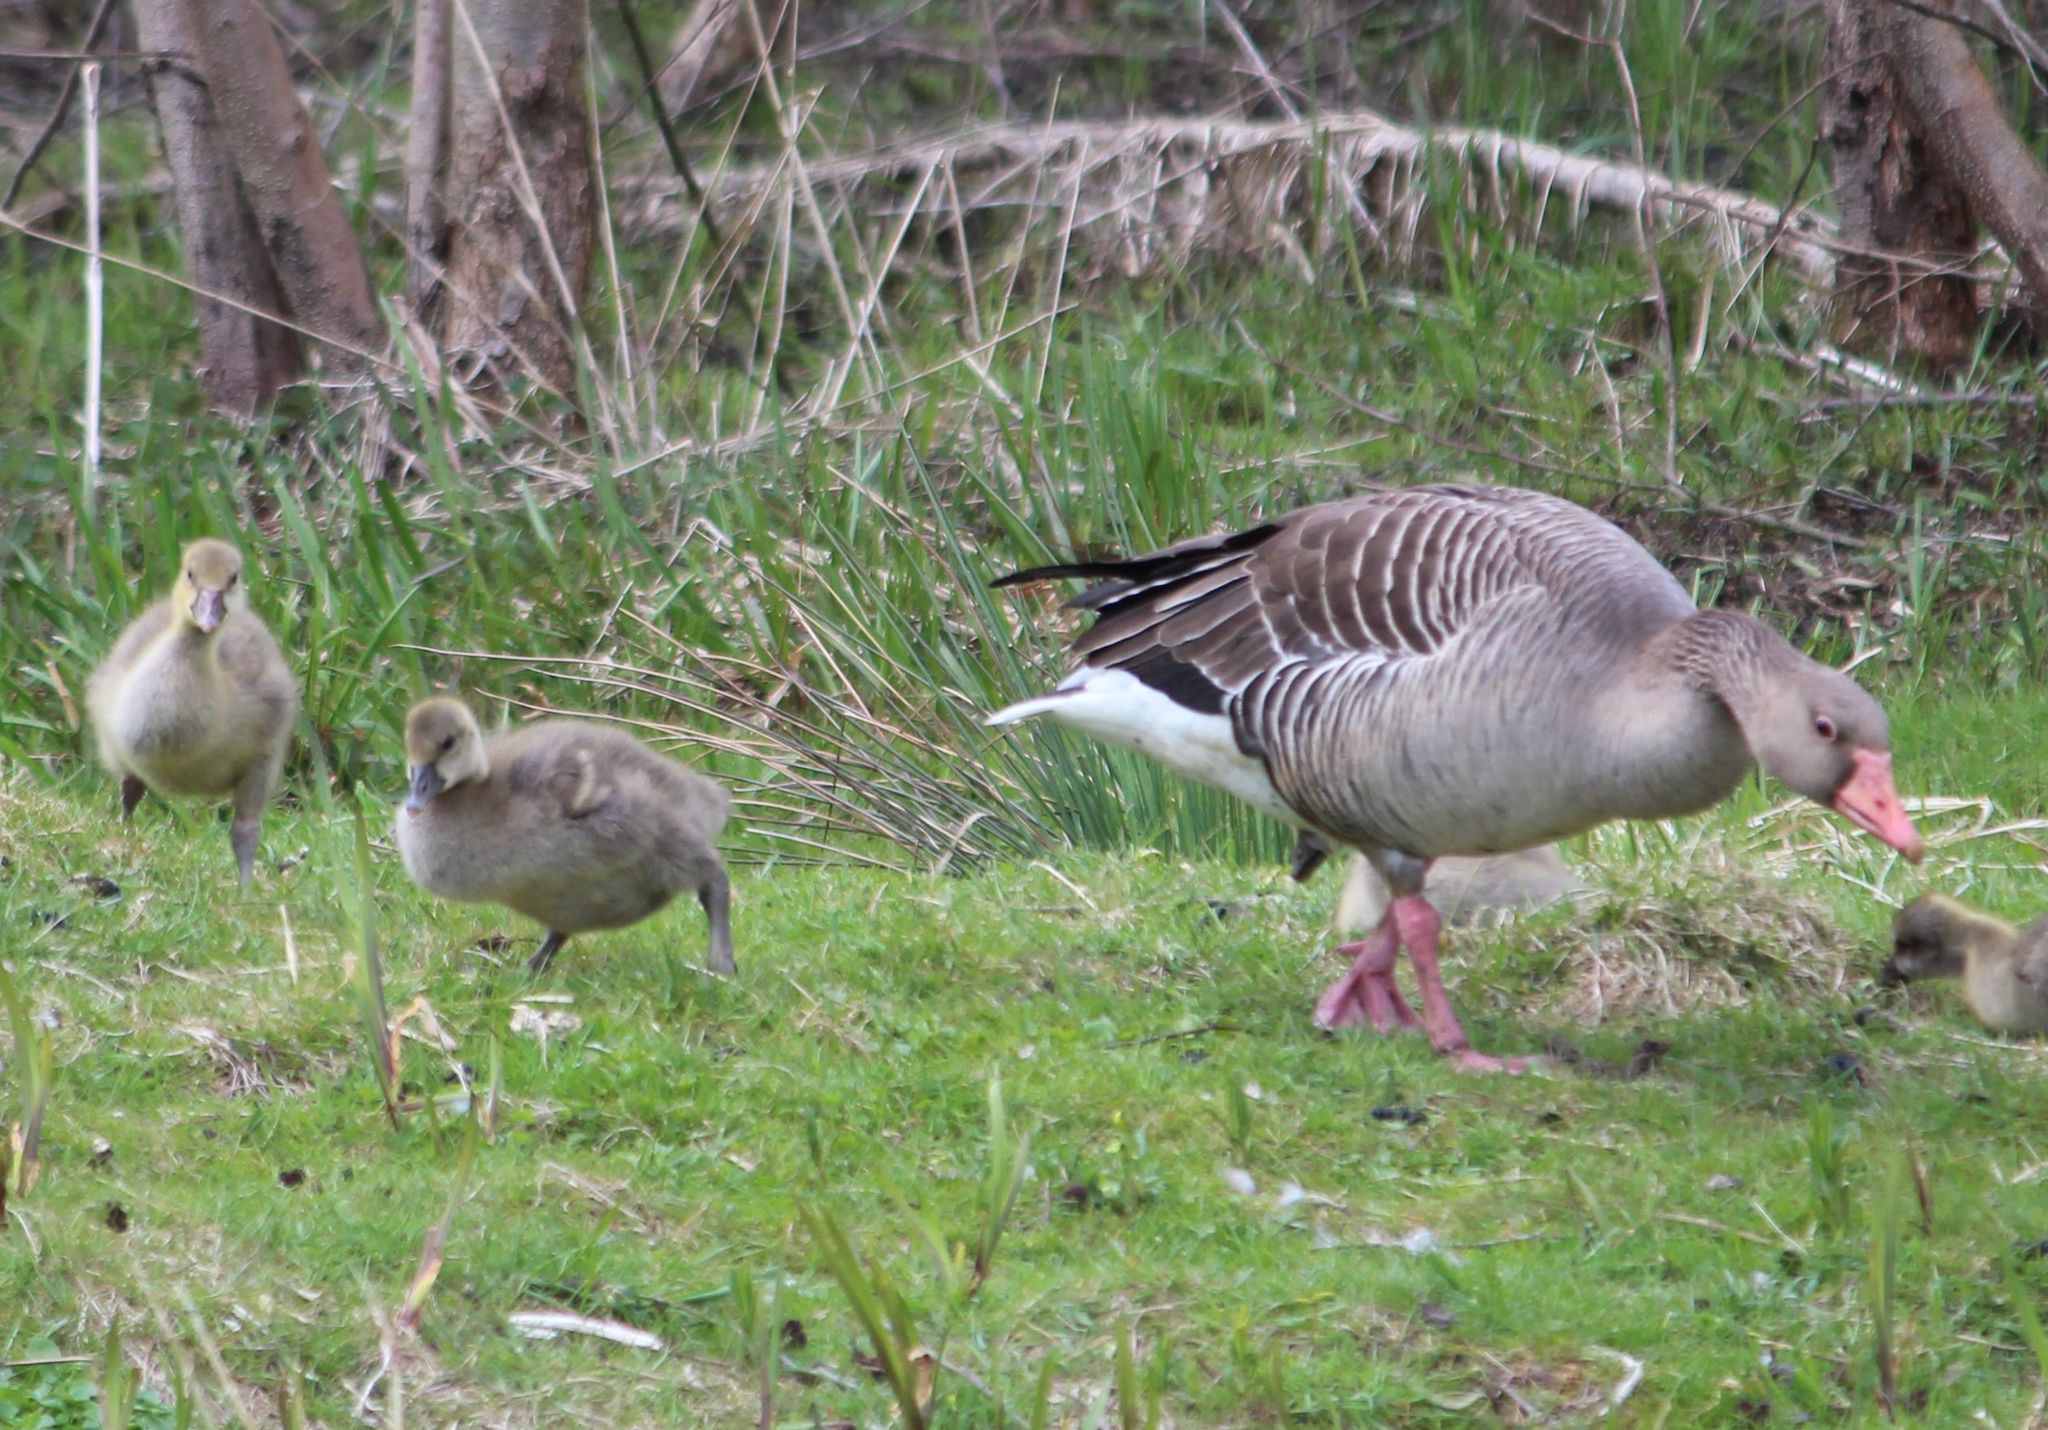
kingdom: Animalia
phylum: Chordata
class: Aves
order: Anseriformes
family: Anatidae
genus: Anser
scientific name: Anser anser
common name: Greylag goose
